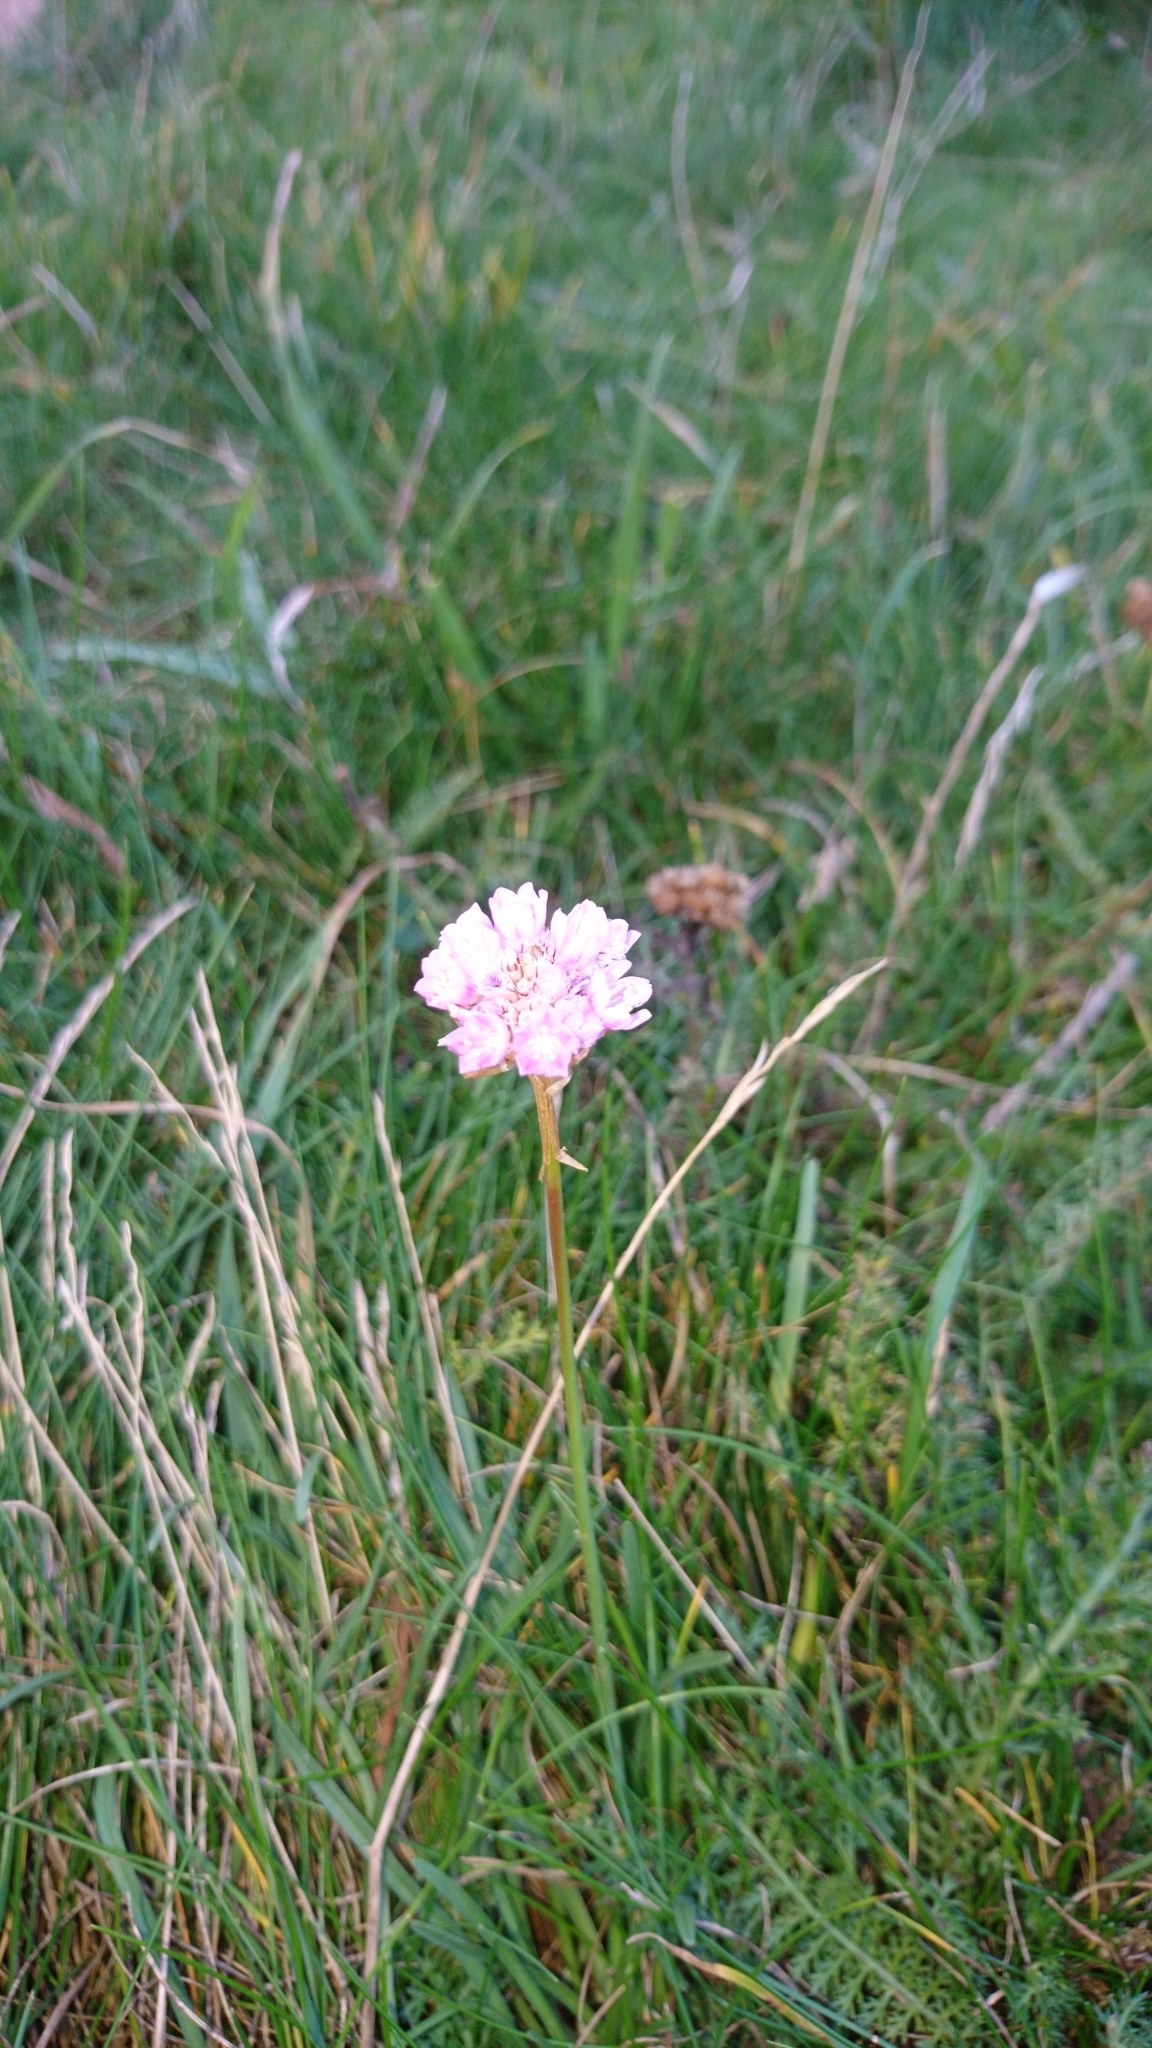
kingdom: Plantae
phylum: Tracheophyta
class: Magnoliopsida
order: Caryophyllales
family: Plumbaginaceae
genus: Armeria
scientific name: Armeria maritima
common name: Thrift
